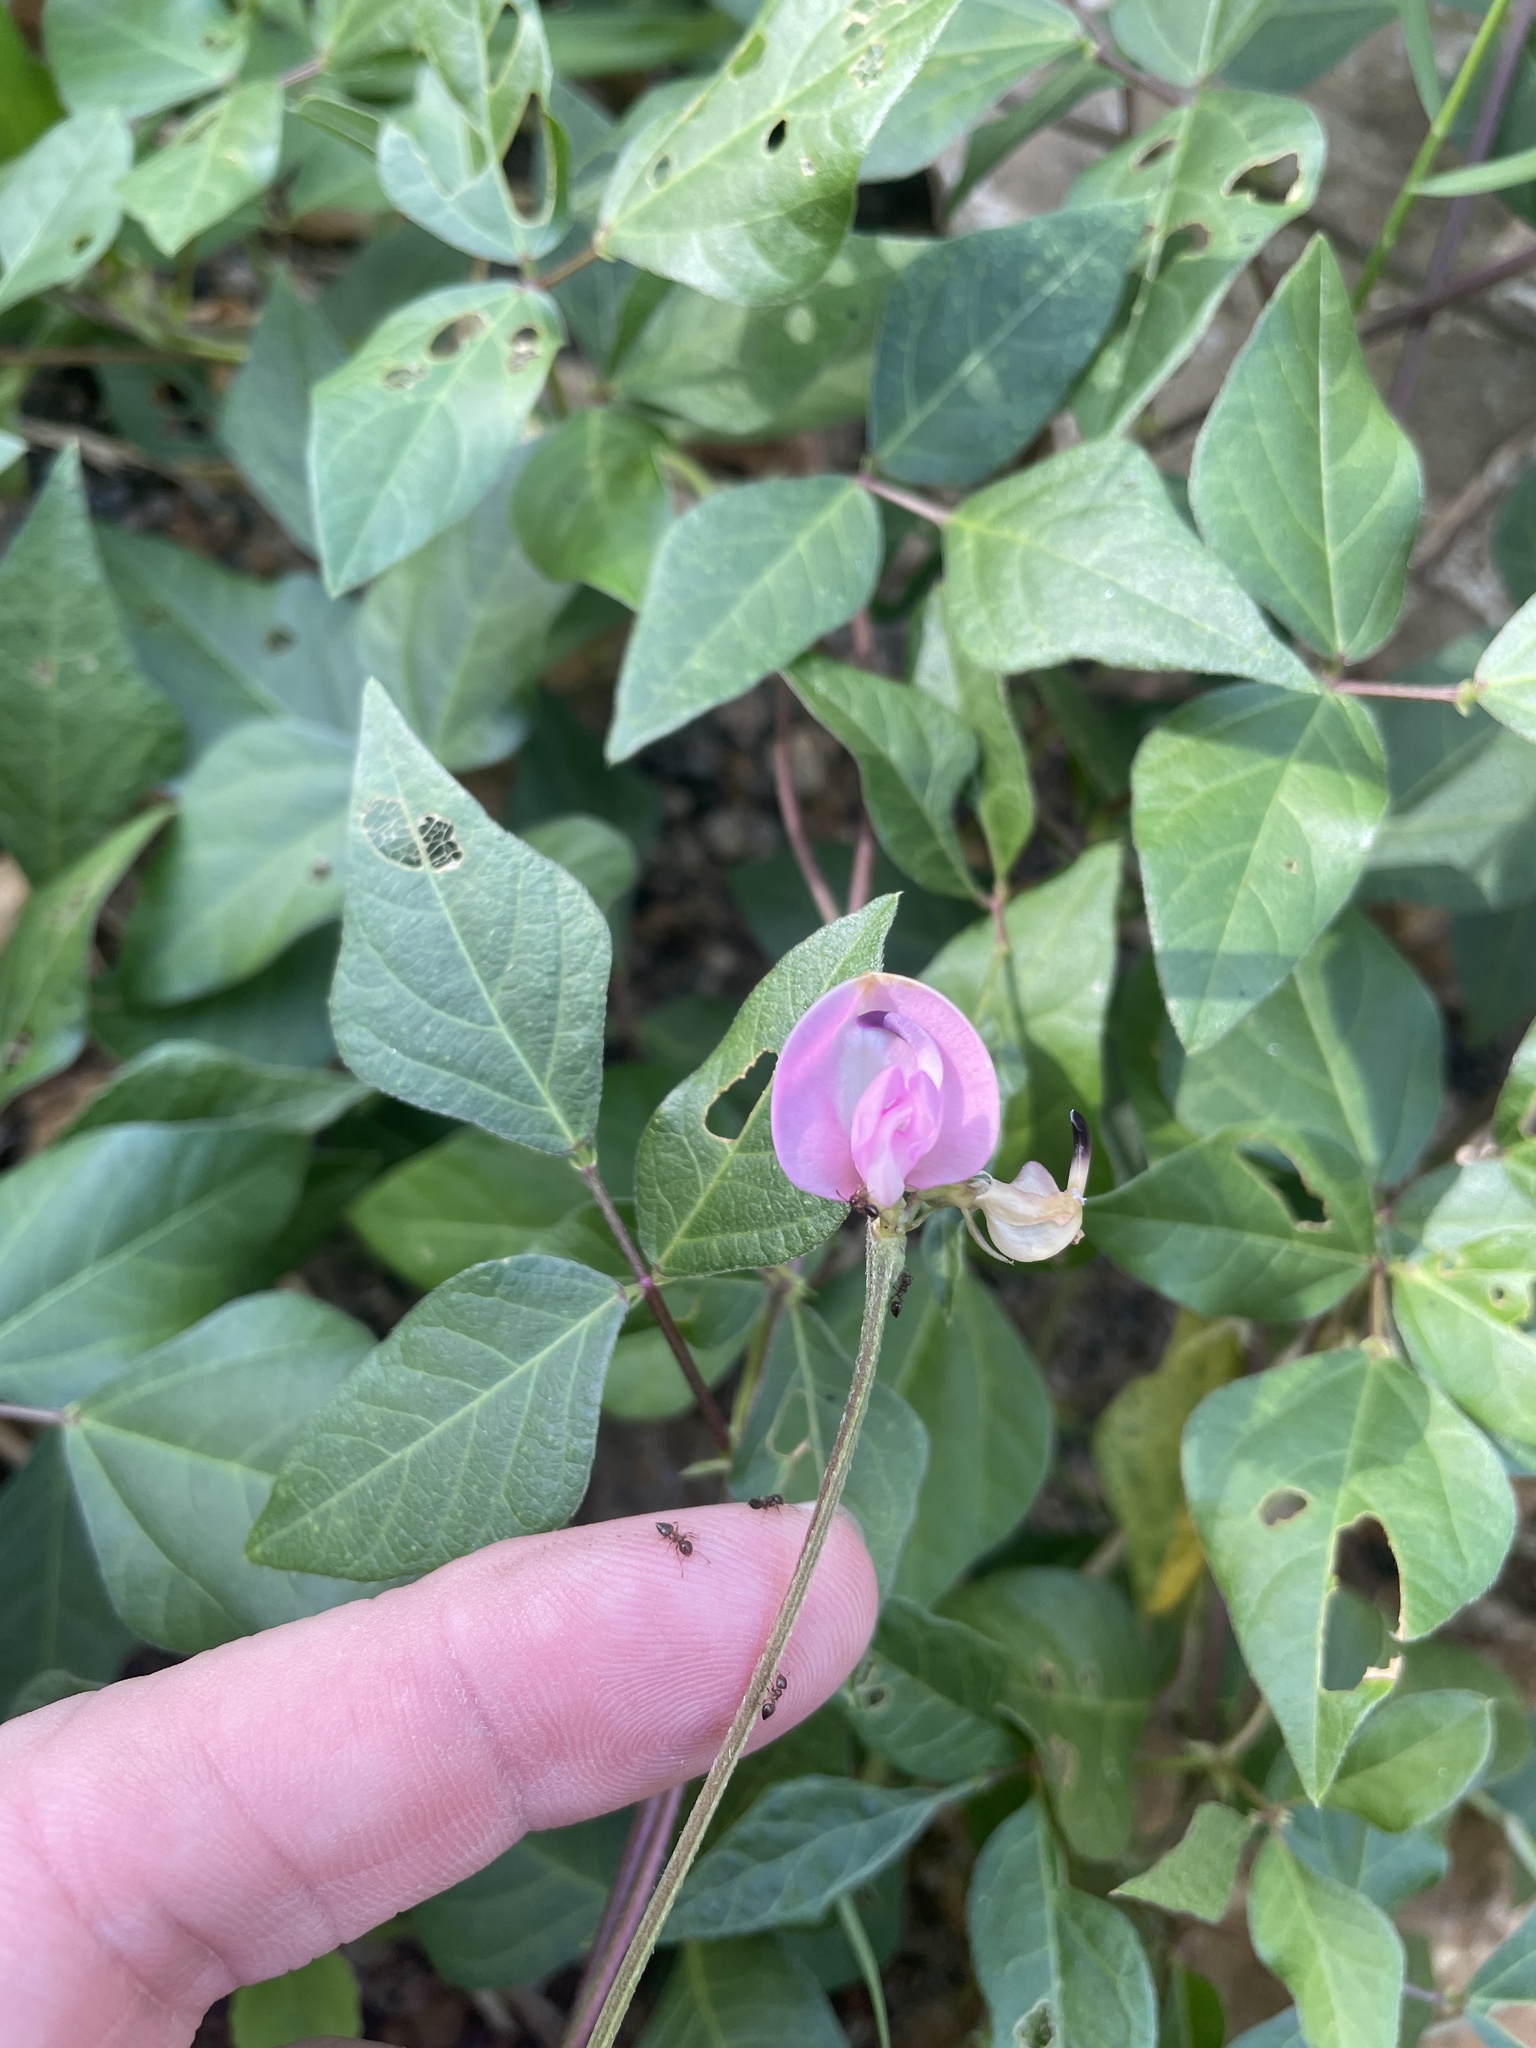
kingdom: Plantae
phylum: Tracheophyta
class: Magnoliopsida
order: Fabales
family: Fabaceae
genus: Strophostyles
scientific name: Strophostyles helvola
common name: Trailing wild bean
